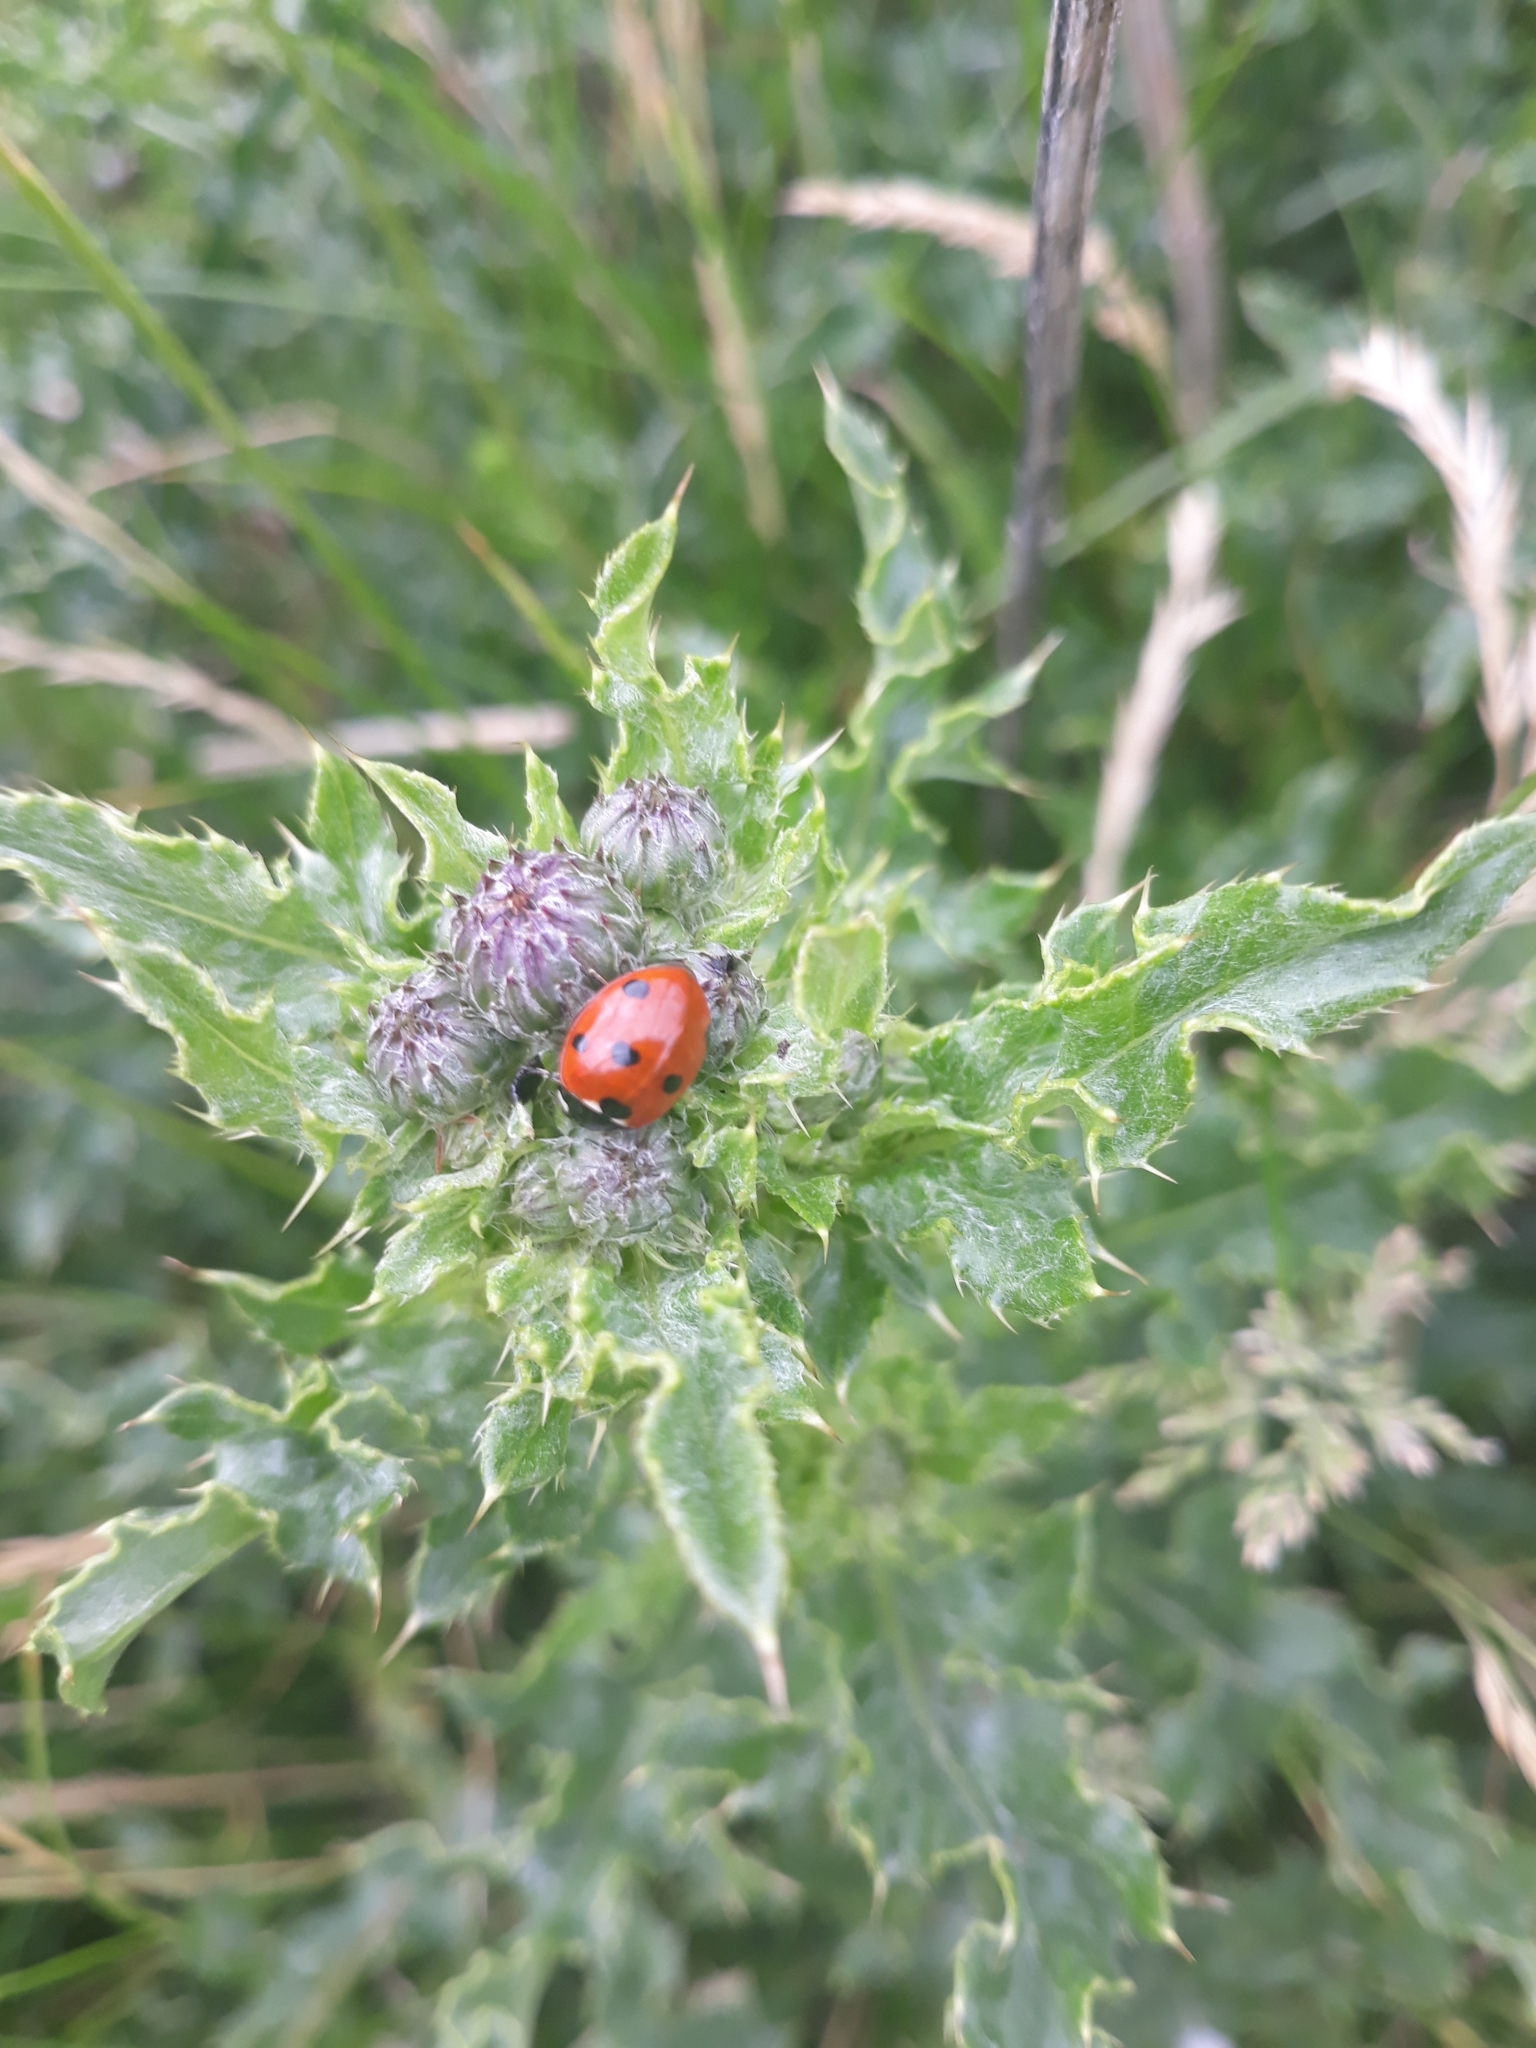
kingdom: Animalia
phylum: Arthropoda
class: Insecta
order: Coleoptera
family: Coccinellidae
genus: Coccinella
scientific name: Coccinella septempunctata
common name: Sevenspotted lady beetle
